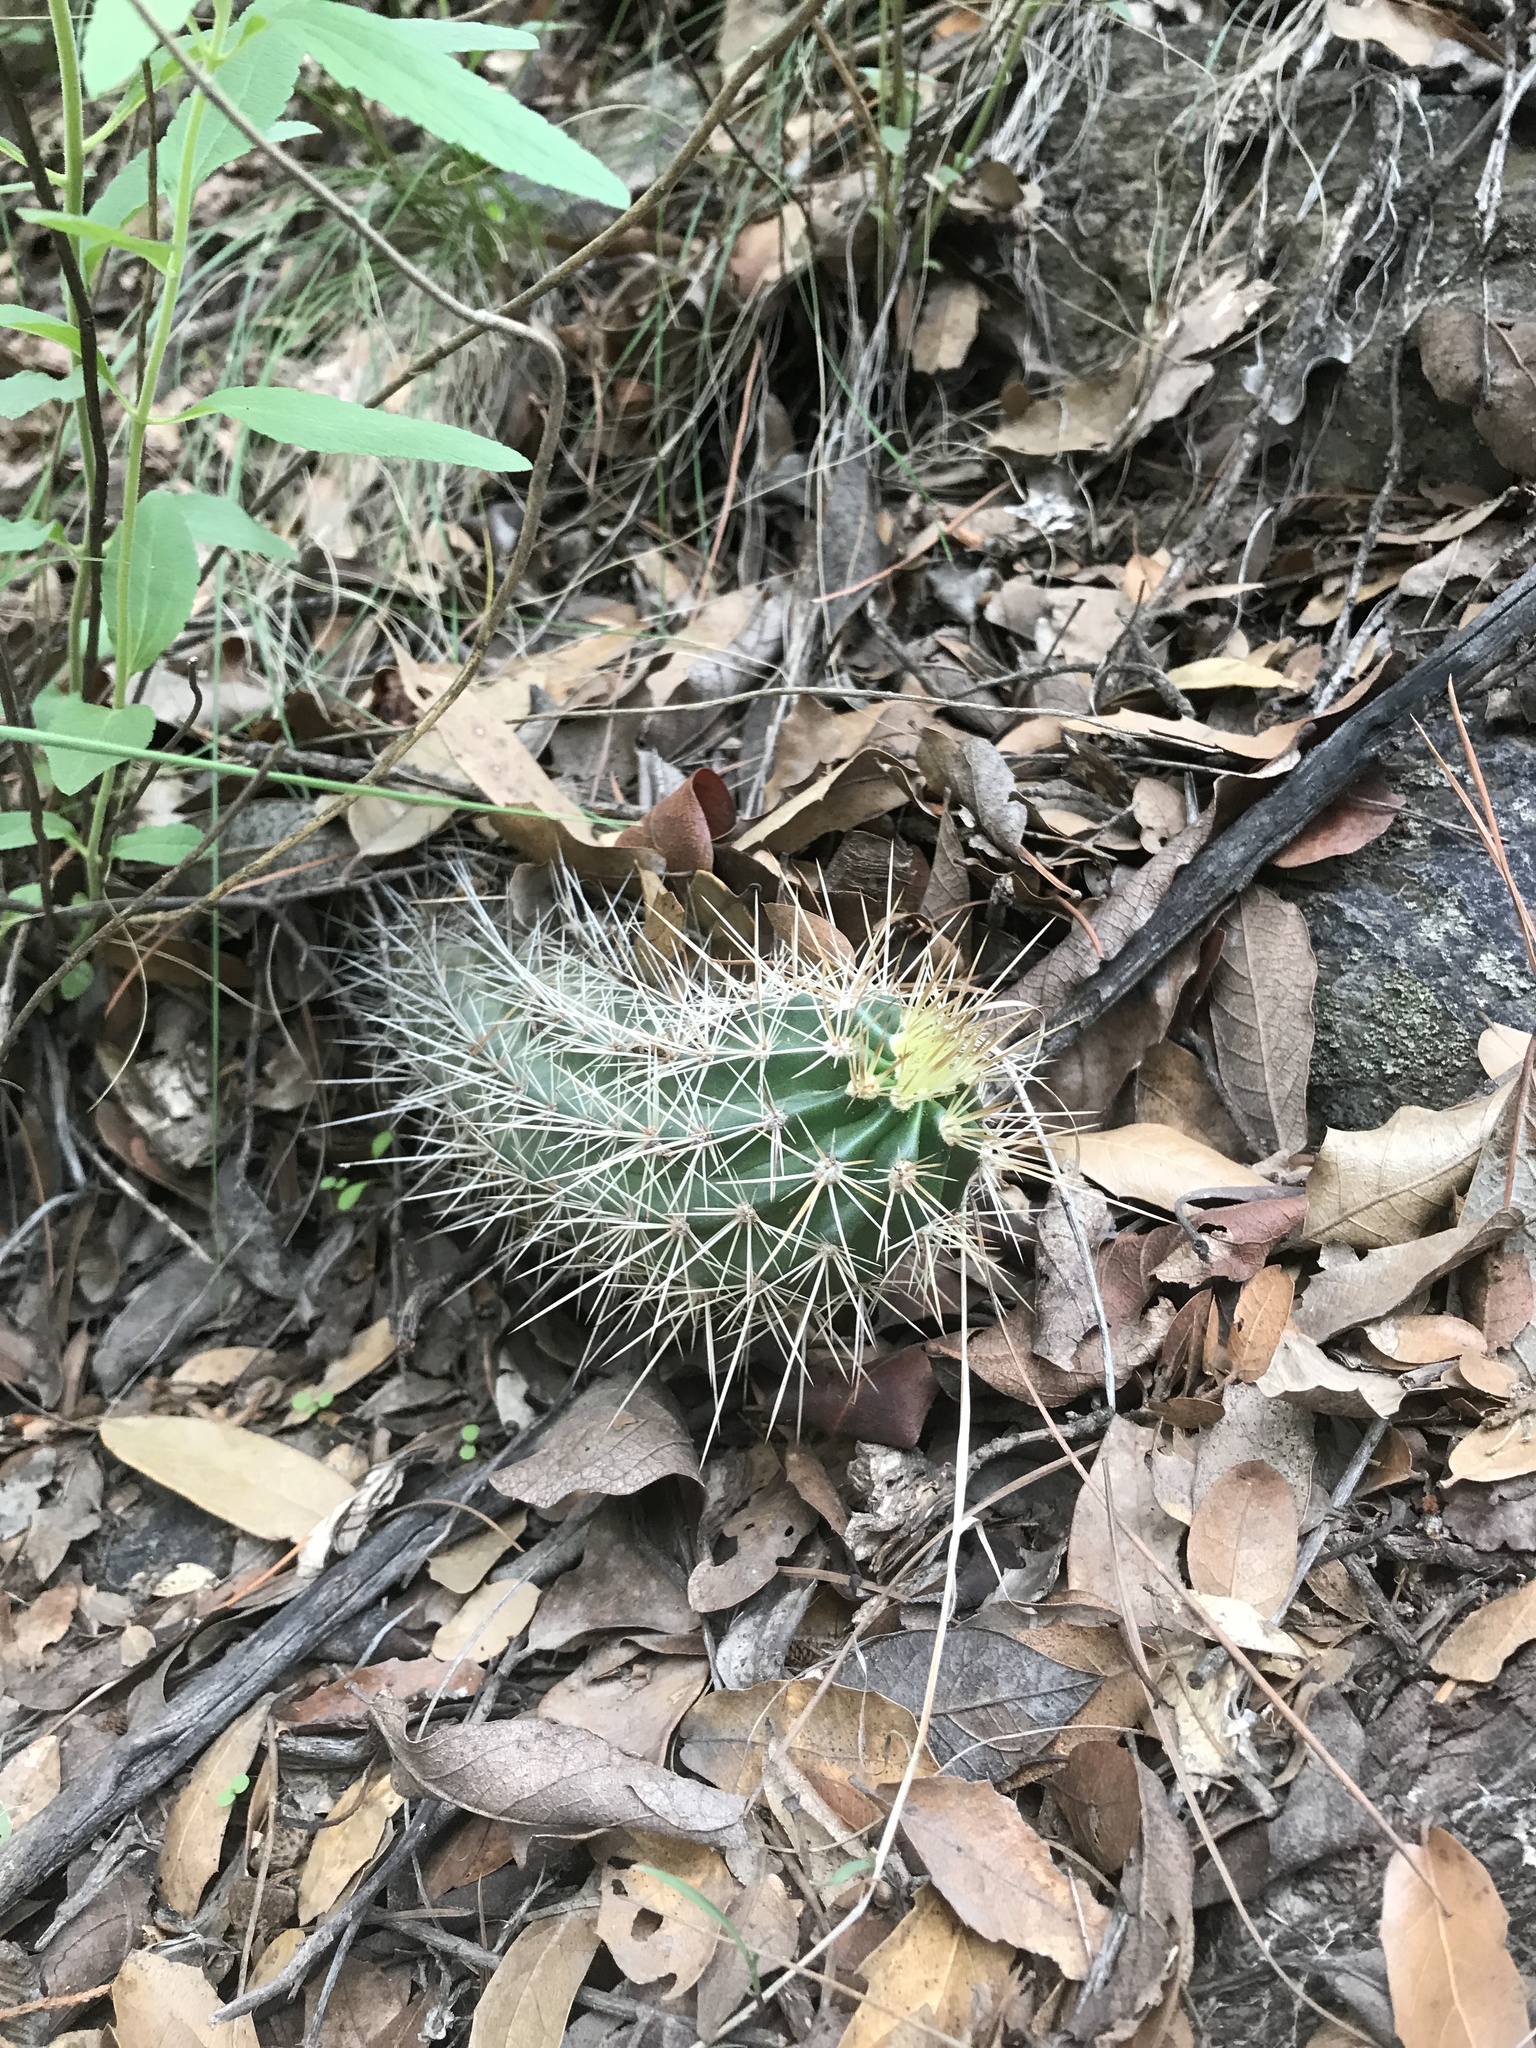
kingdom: Plantae
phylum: Tracheophyta
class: Magnoliopsida
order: Caryophyllales
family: Cactaceae
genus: Echinocereus
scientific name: Echinocereus coccineus
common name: Scarlet hedgehog cactus
